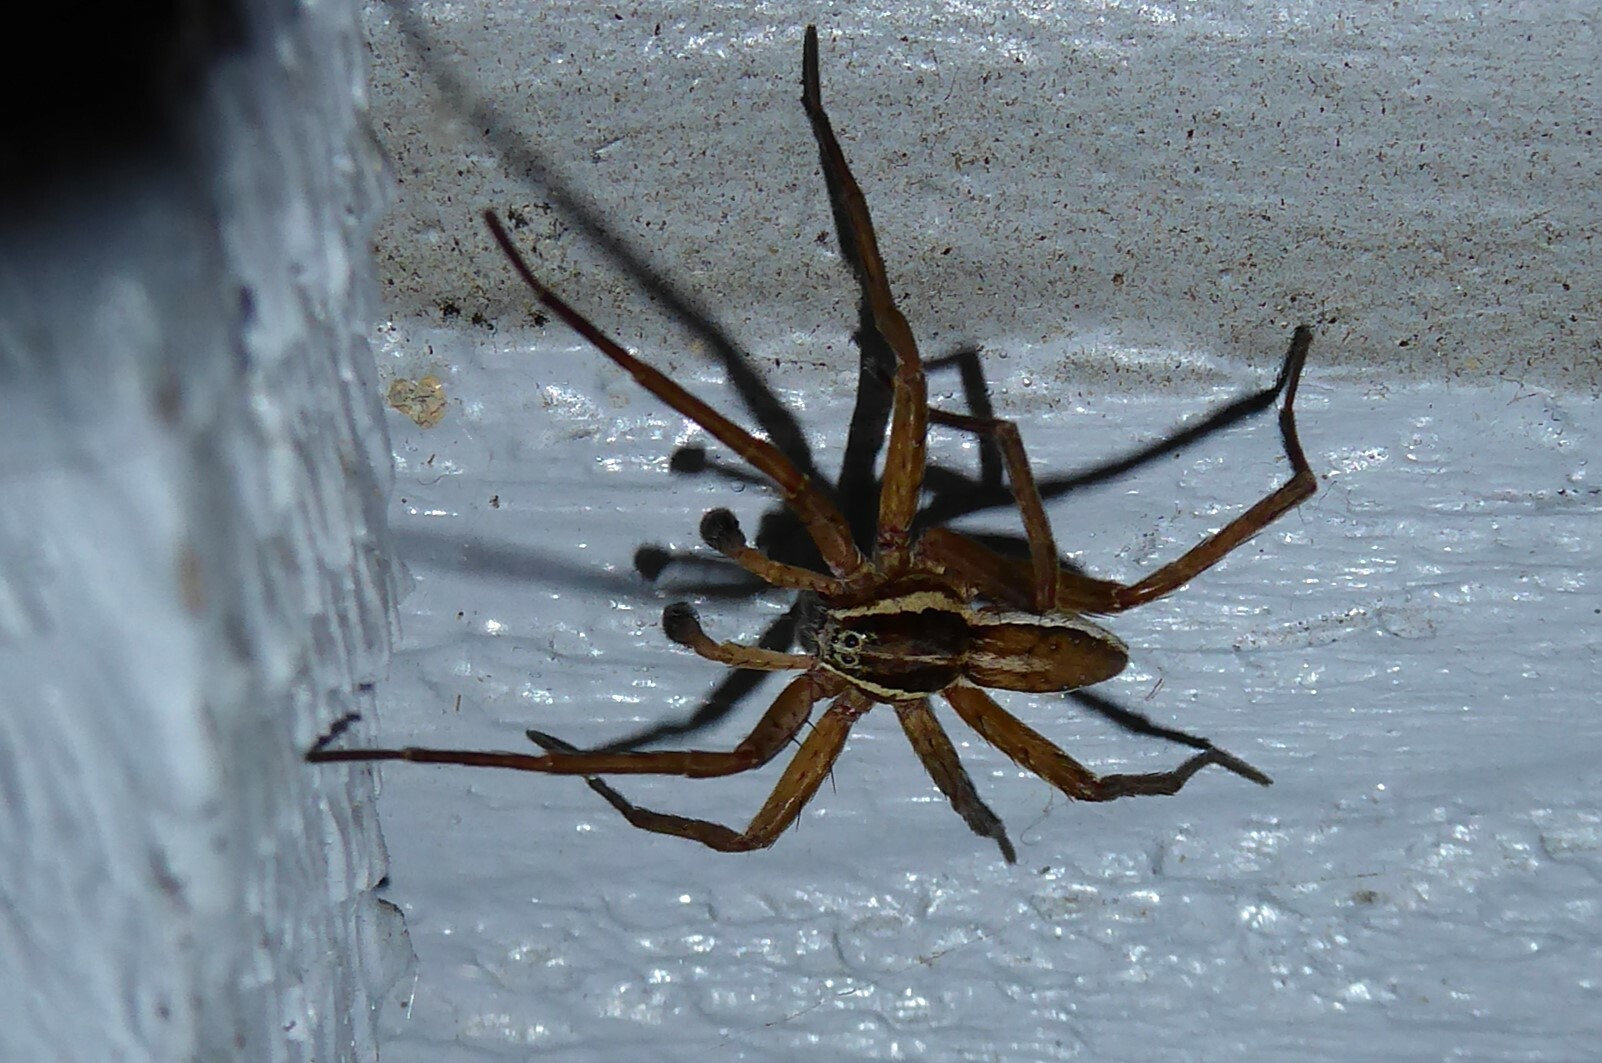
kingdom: Animalia
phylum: Arthropoda
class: Arachnida
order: Araneae
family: Pisauridae
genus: Dolomedes
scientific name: Dolomedes minor
